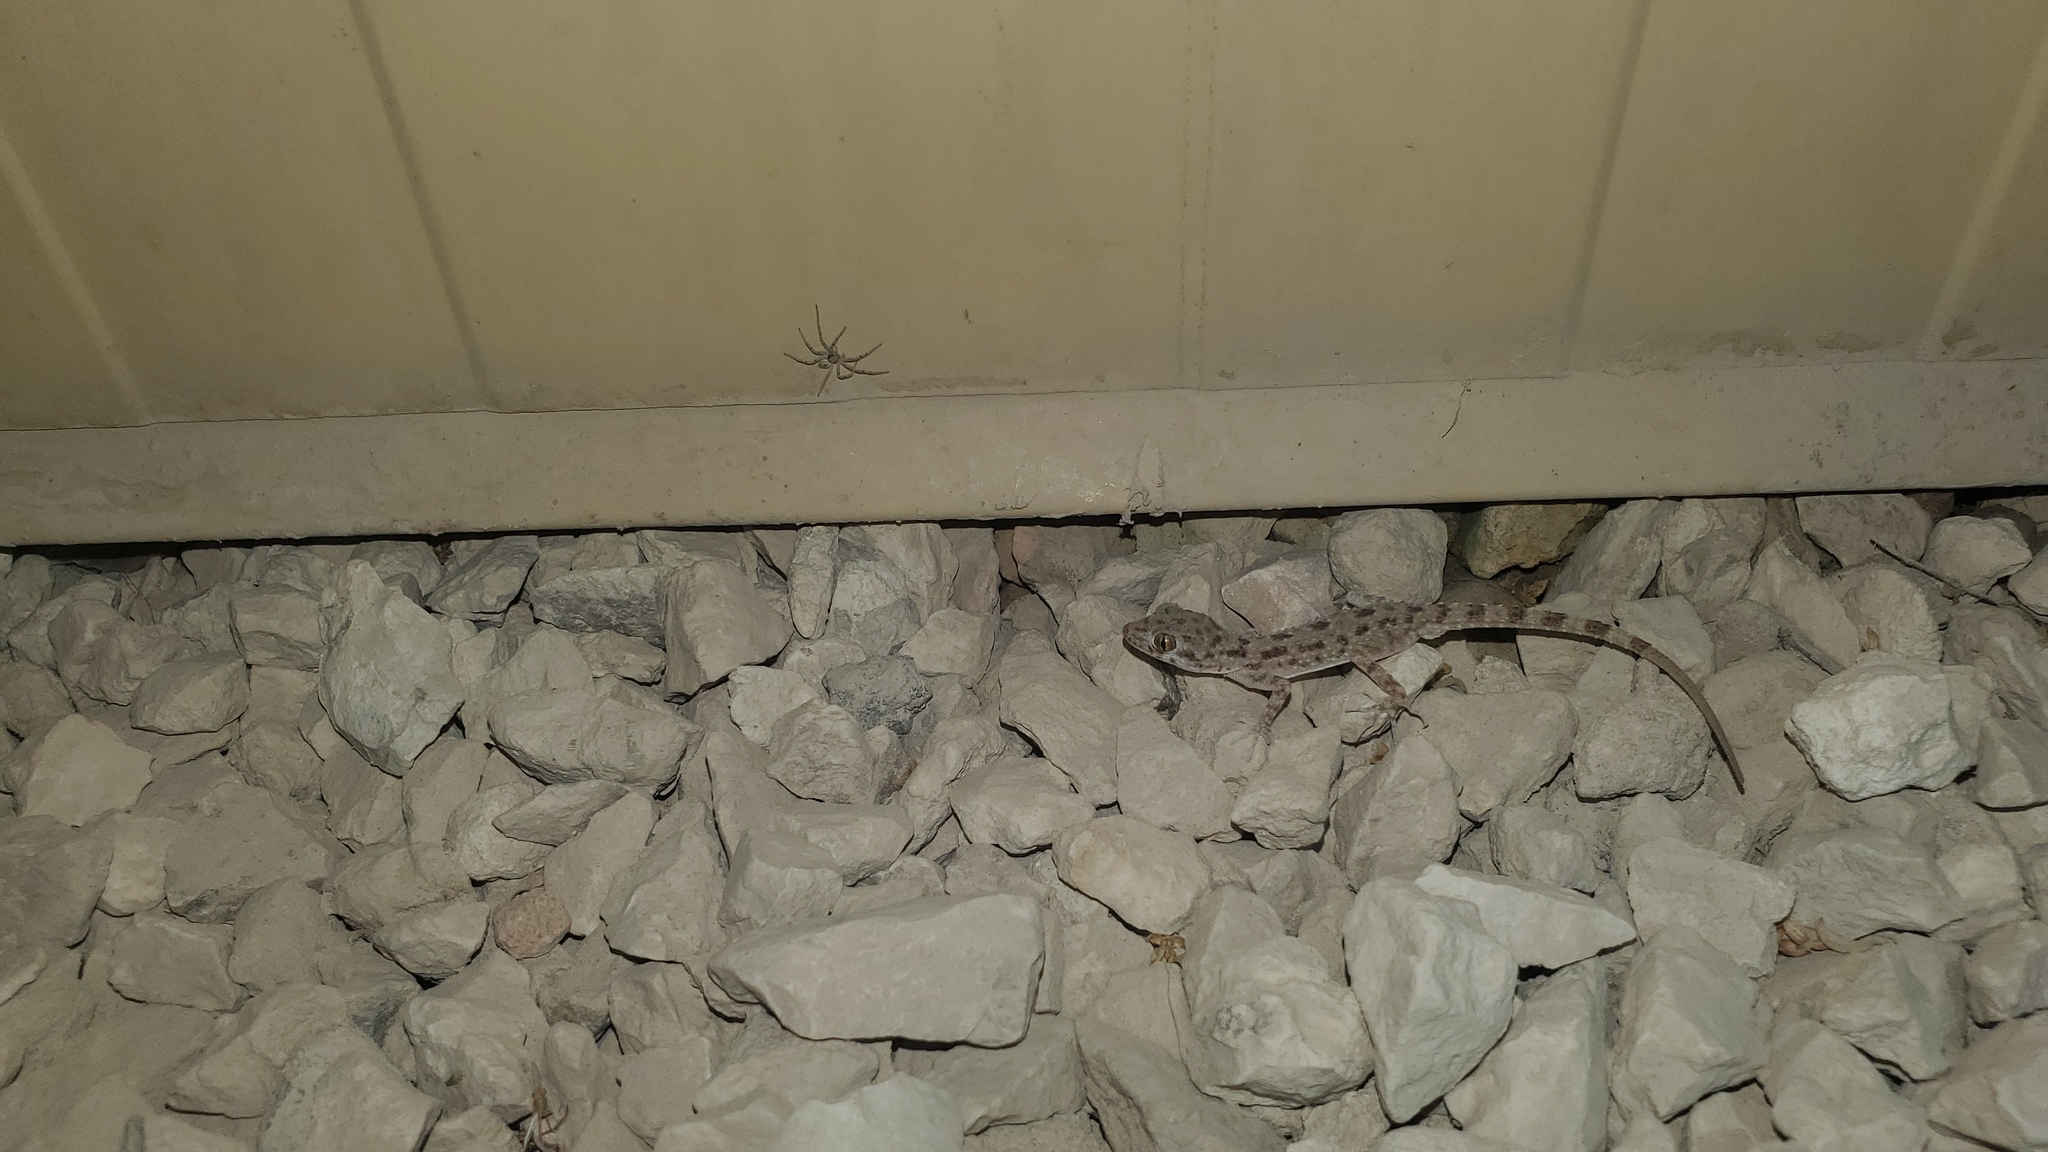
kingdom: Animalia
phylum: Chordata
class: Squamata
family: Gekkonidae
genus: Cyrtopodion
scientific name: Cyrtopodion scabrum
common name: Rough-tailed gecko
